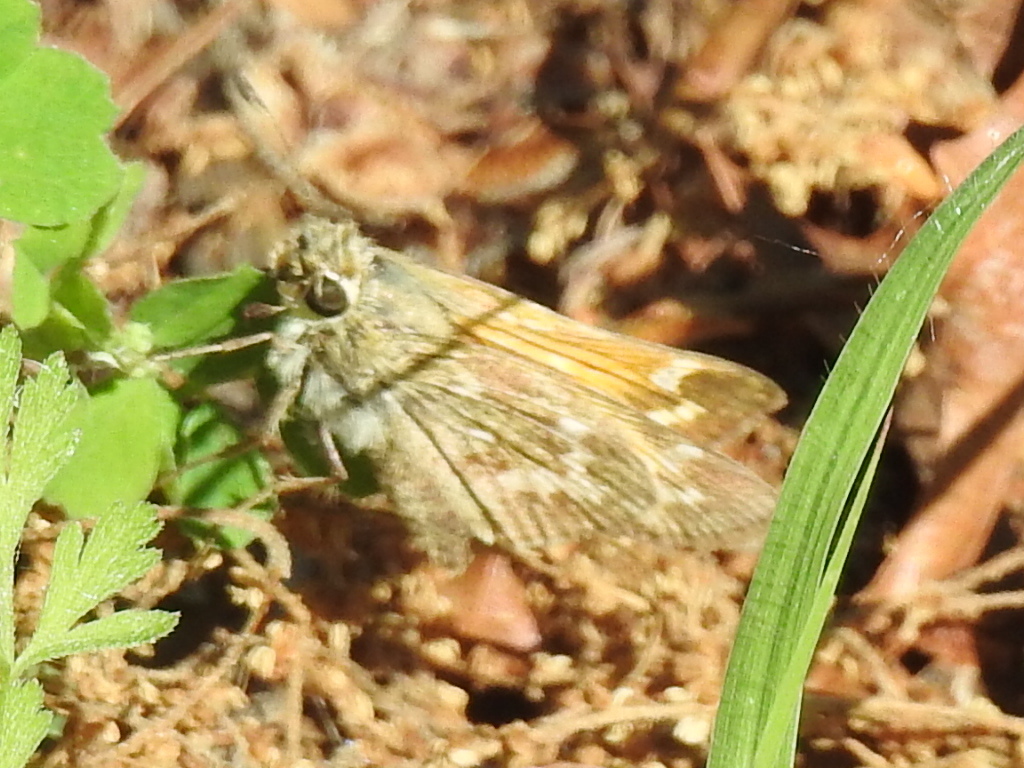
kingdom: Animalia
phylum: Arthropoda
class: Insecta
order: Lepidoptera
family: Hesperiidae
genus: Atalopedes
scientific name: Atalopedes
